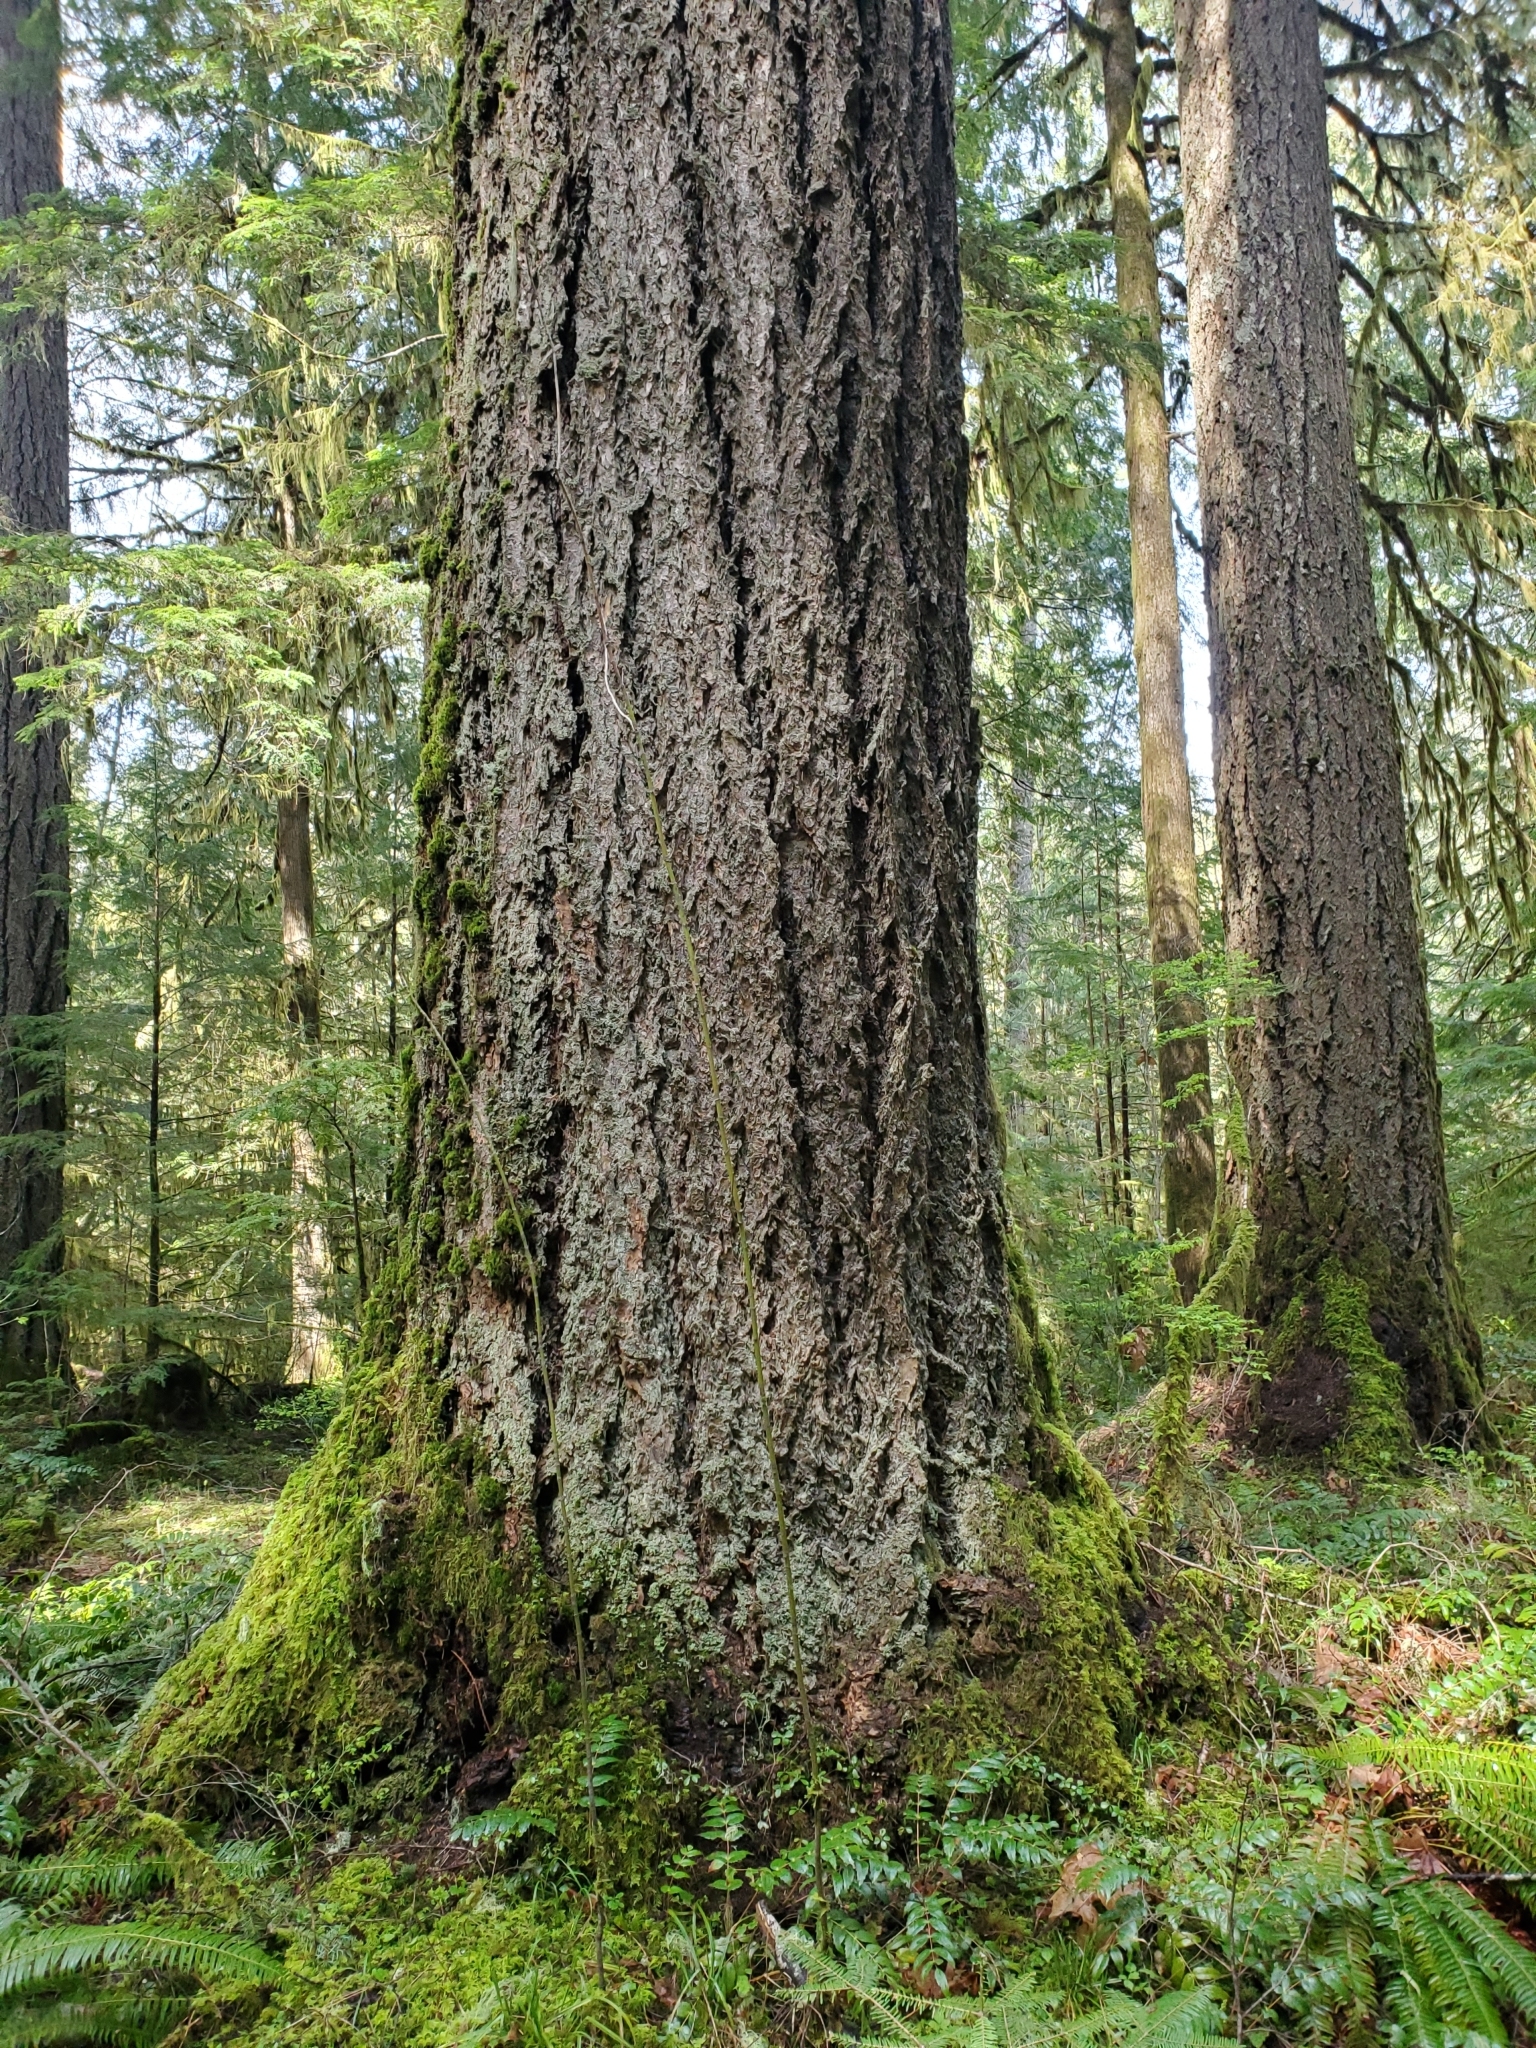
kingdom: Plantae
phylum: Tracheophyta
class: Pinopsida
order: Pinales
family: Pinaceae
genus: Pseudotsuga
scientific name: Pseudotsuga menziesii
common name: Douglas fir
